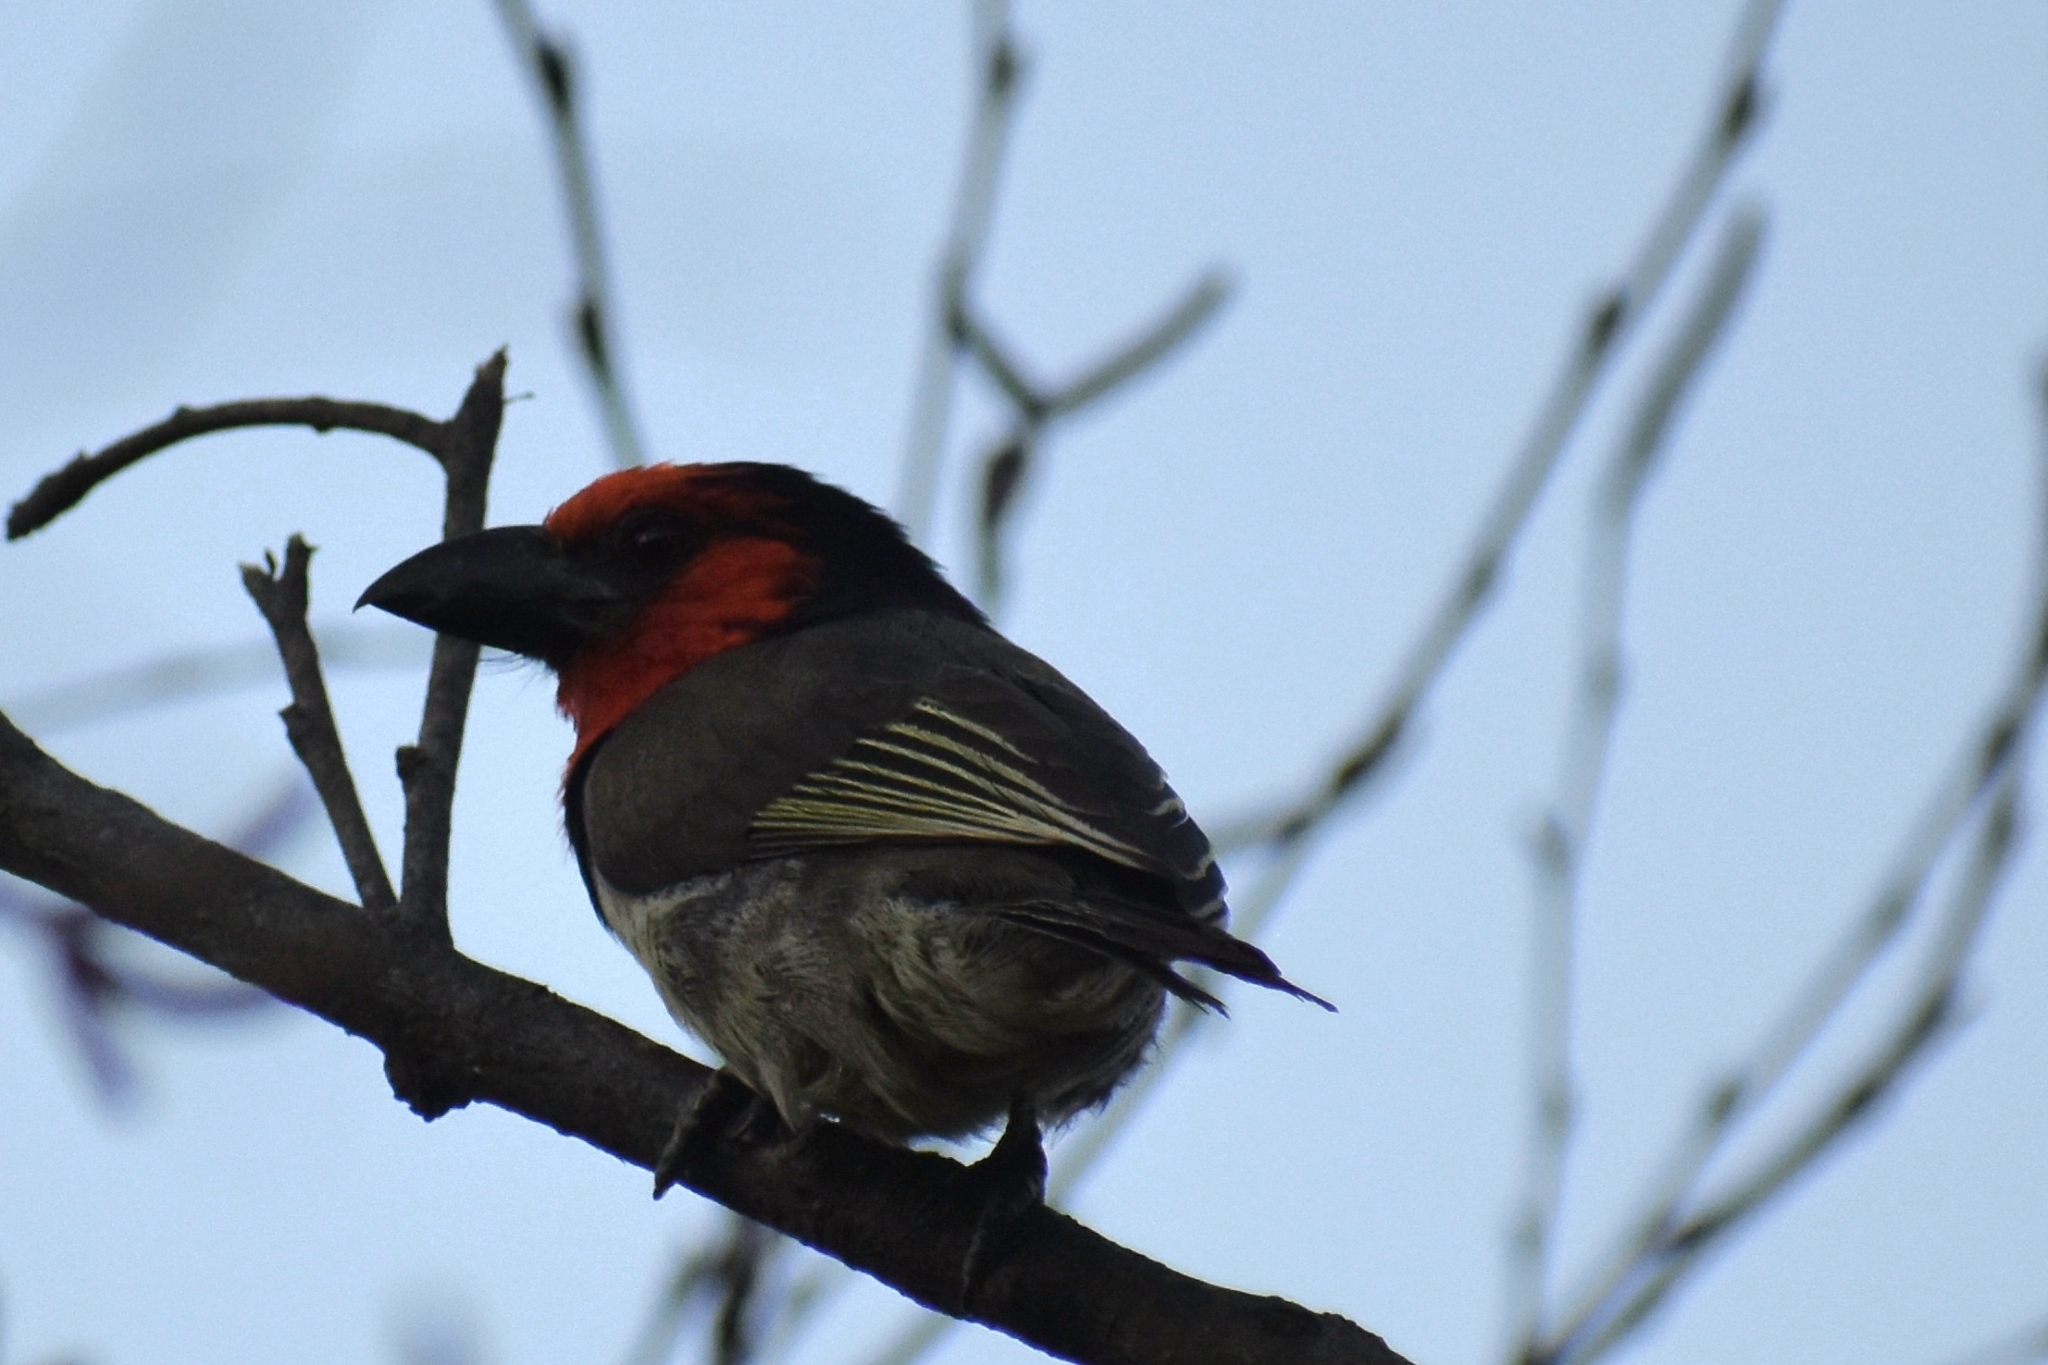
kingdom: Animalia
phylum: Chordata
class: Aves
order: Piciformes
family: Lybiidae
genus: Lybius
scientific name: Lybius torquatus
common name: Black-collared barbet
